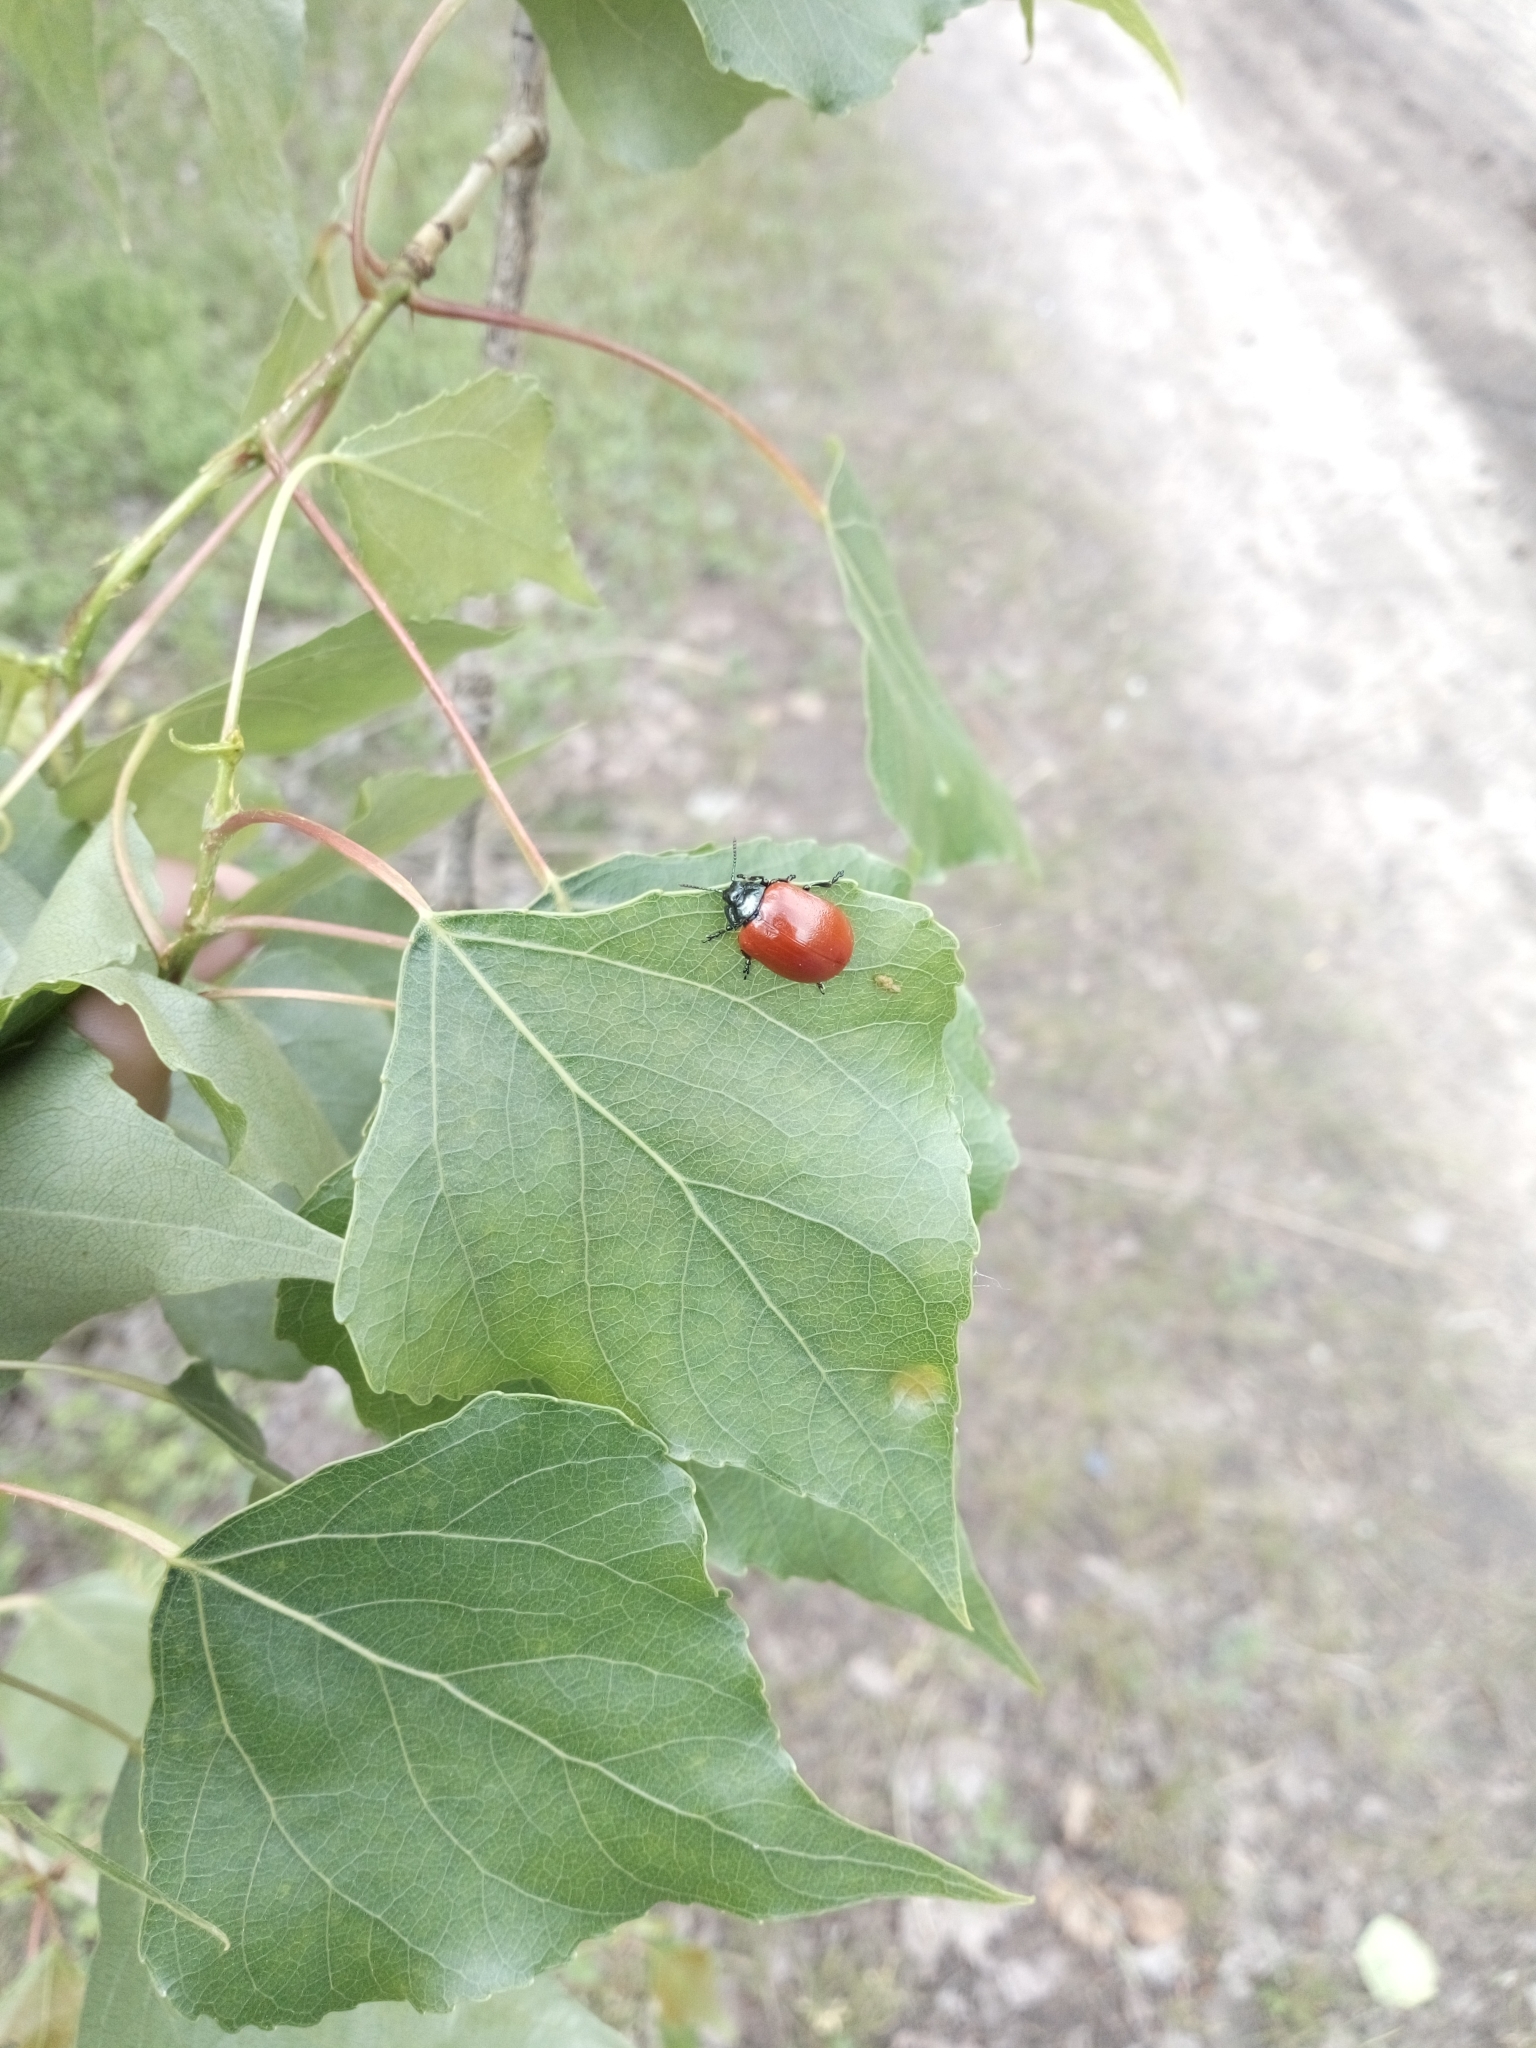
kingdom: Animalia
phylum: Arthropoda
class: Insecta
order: Coleoptera
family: Chrysomelidae
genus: Chrysomela
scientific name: Chrysomela populi
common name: Red poplar leaf beetle
